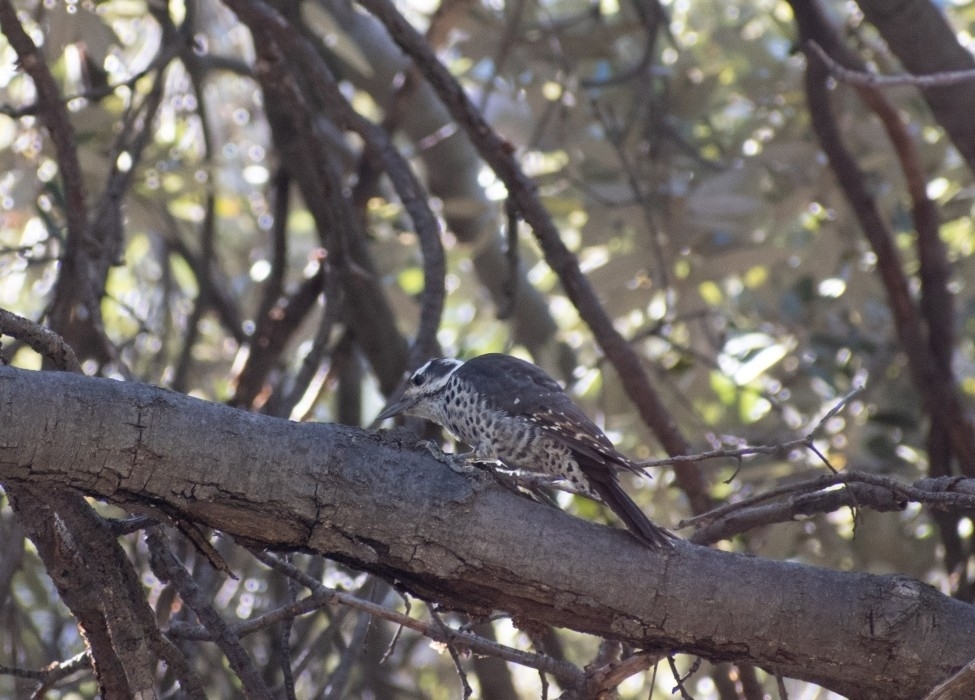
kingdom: Animalia
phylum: Chordata
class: Aves
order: Piciformes
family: Picidae
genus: Leuconotopicus
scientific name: Leuconotopicus arizonae
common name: Arizona woodpecker
